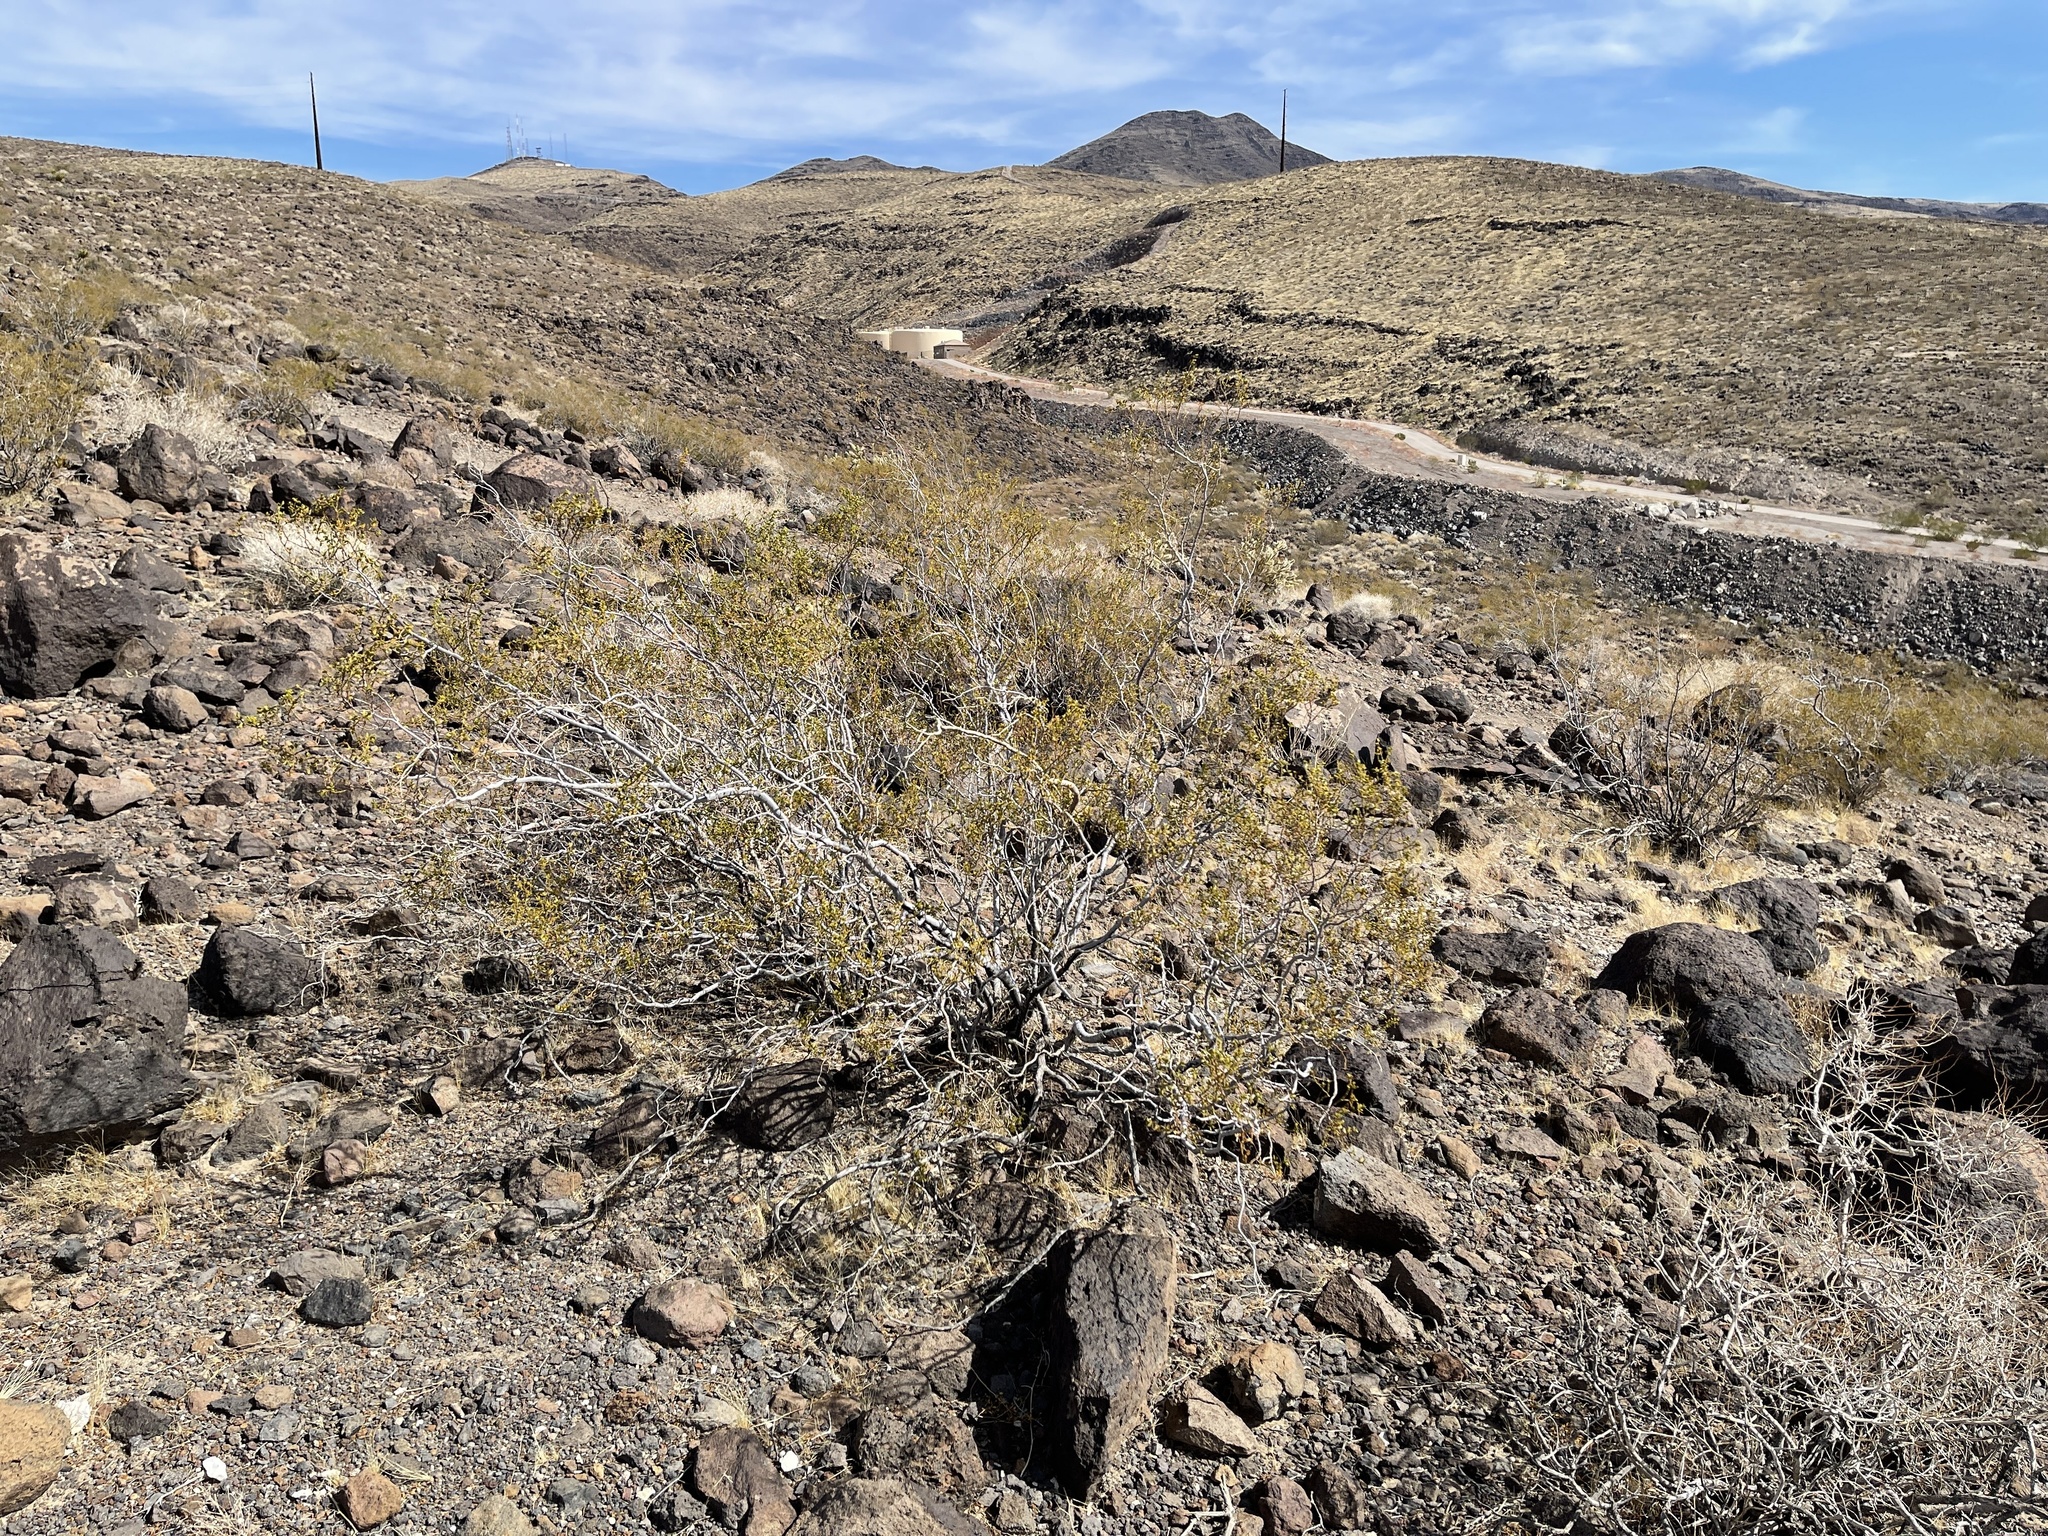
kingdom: Plantae
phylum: Tracheophyta
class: Magnoliopsida
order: Zygophyllales
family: Zygophyllaceae
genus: Larrea
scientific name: Larrea tridentata
